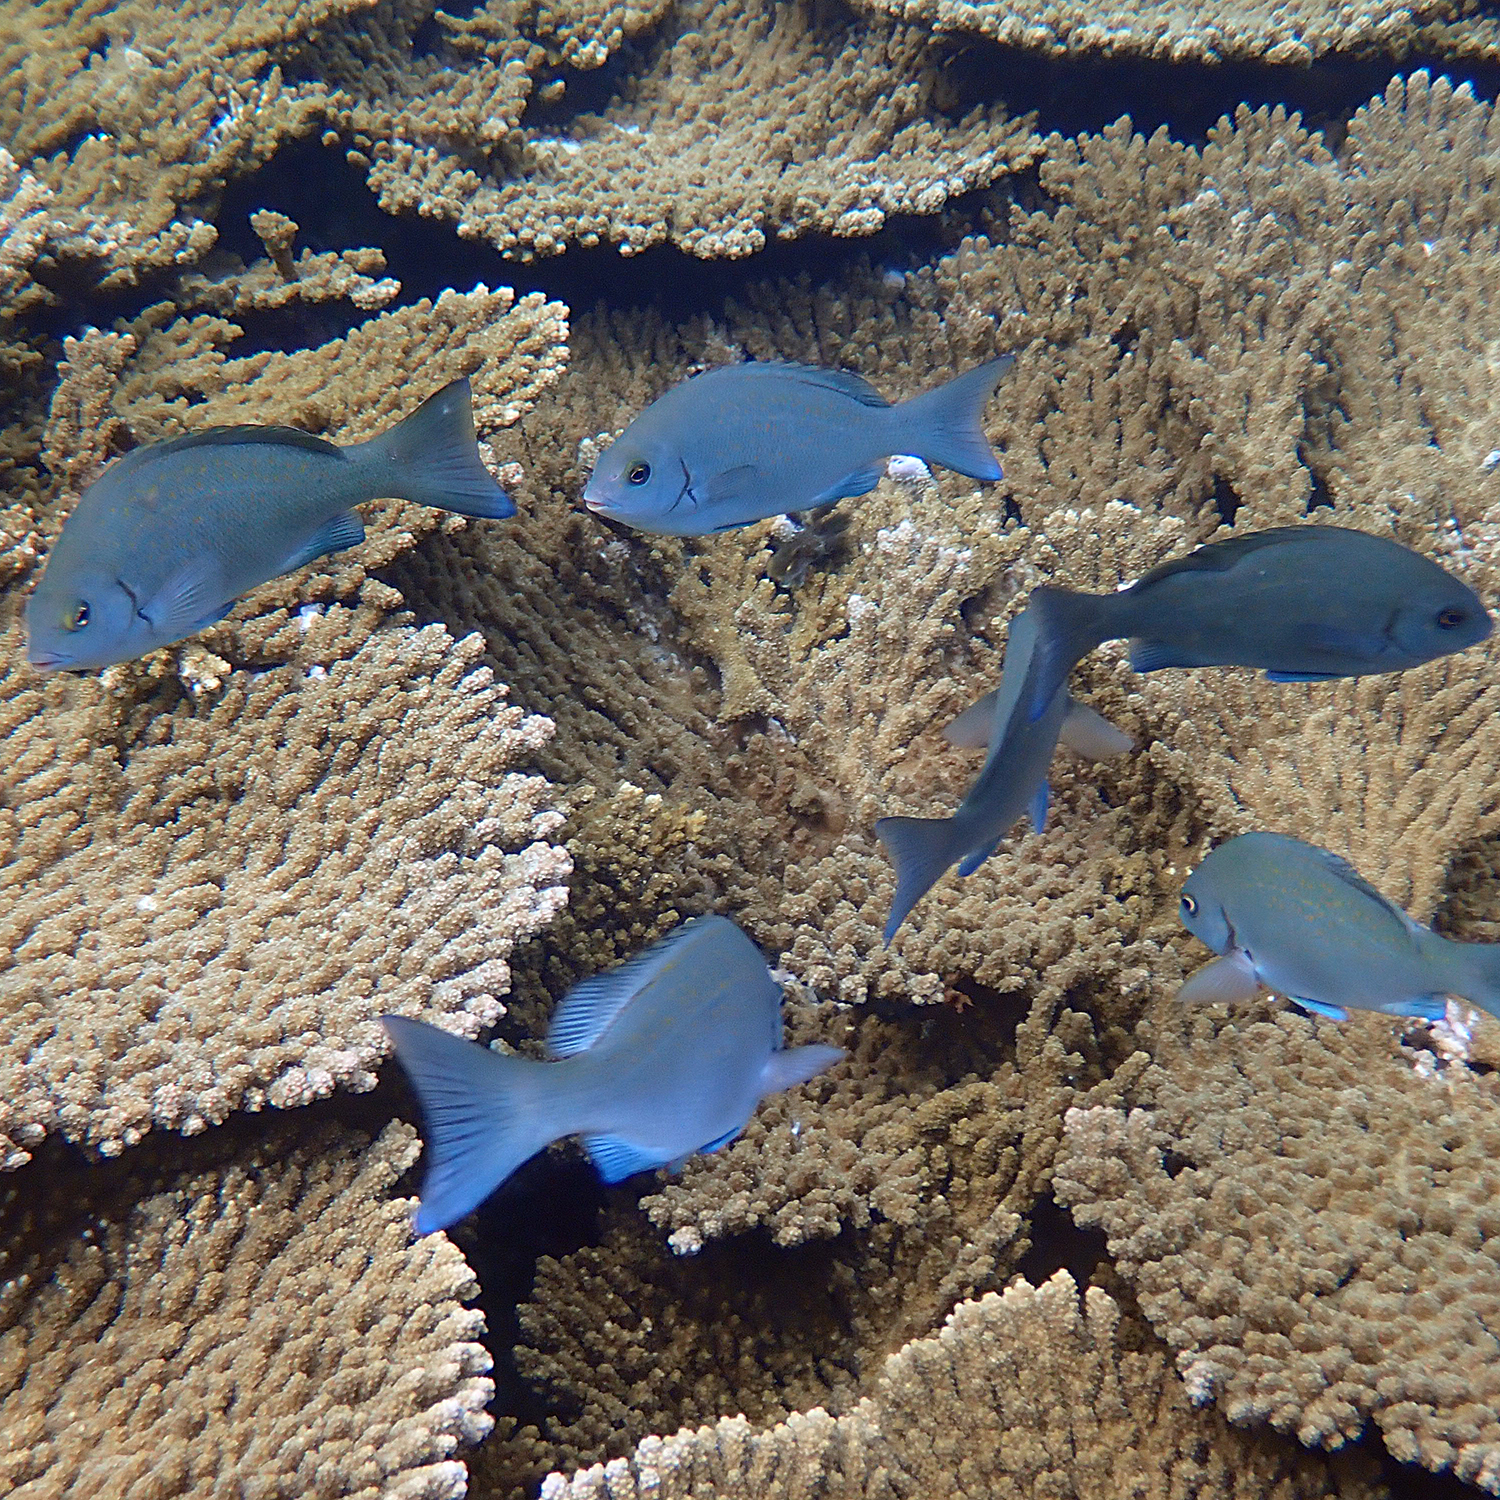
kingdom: Animalia
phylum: Chordata
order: Perciformes
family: Kyphosidae
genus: Girella
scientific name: Girella cyanea
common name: Bluefish
